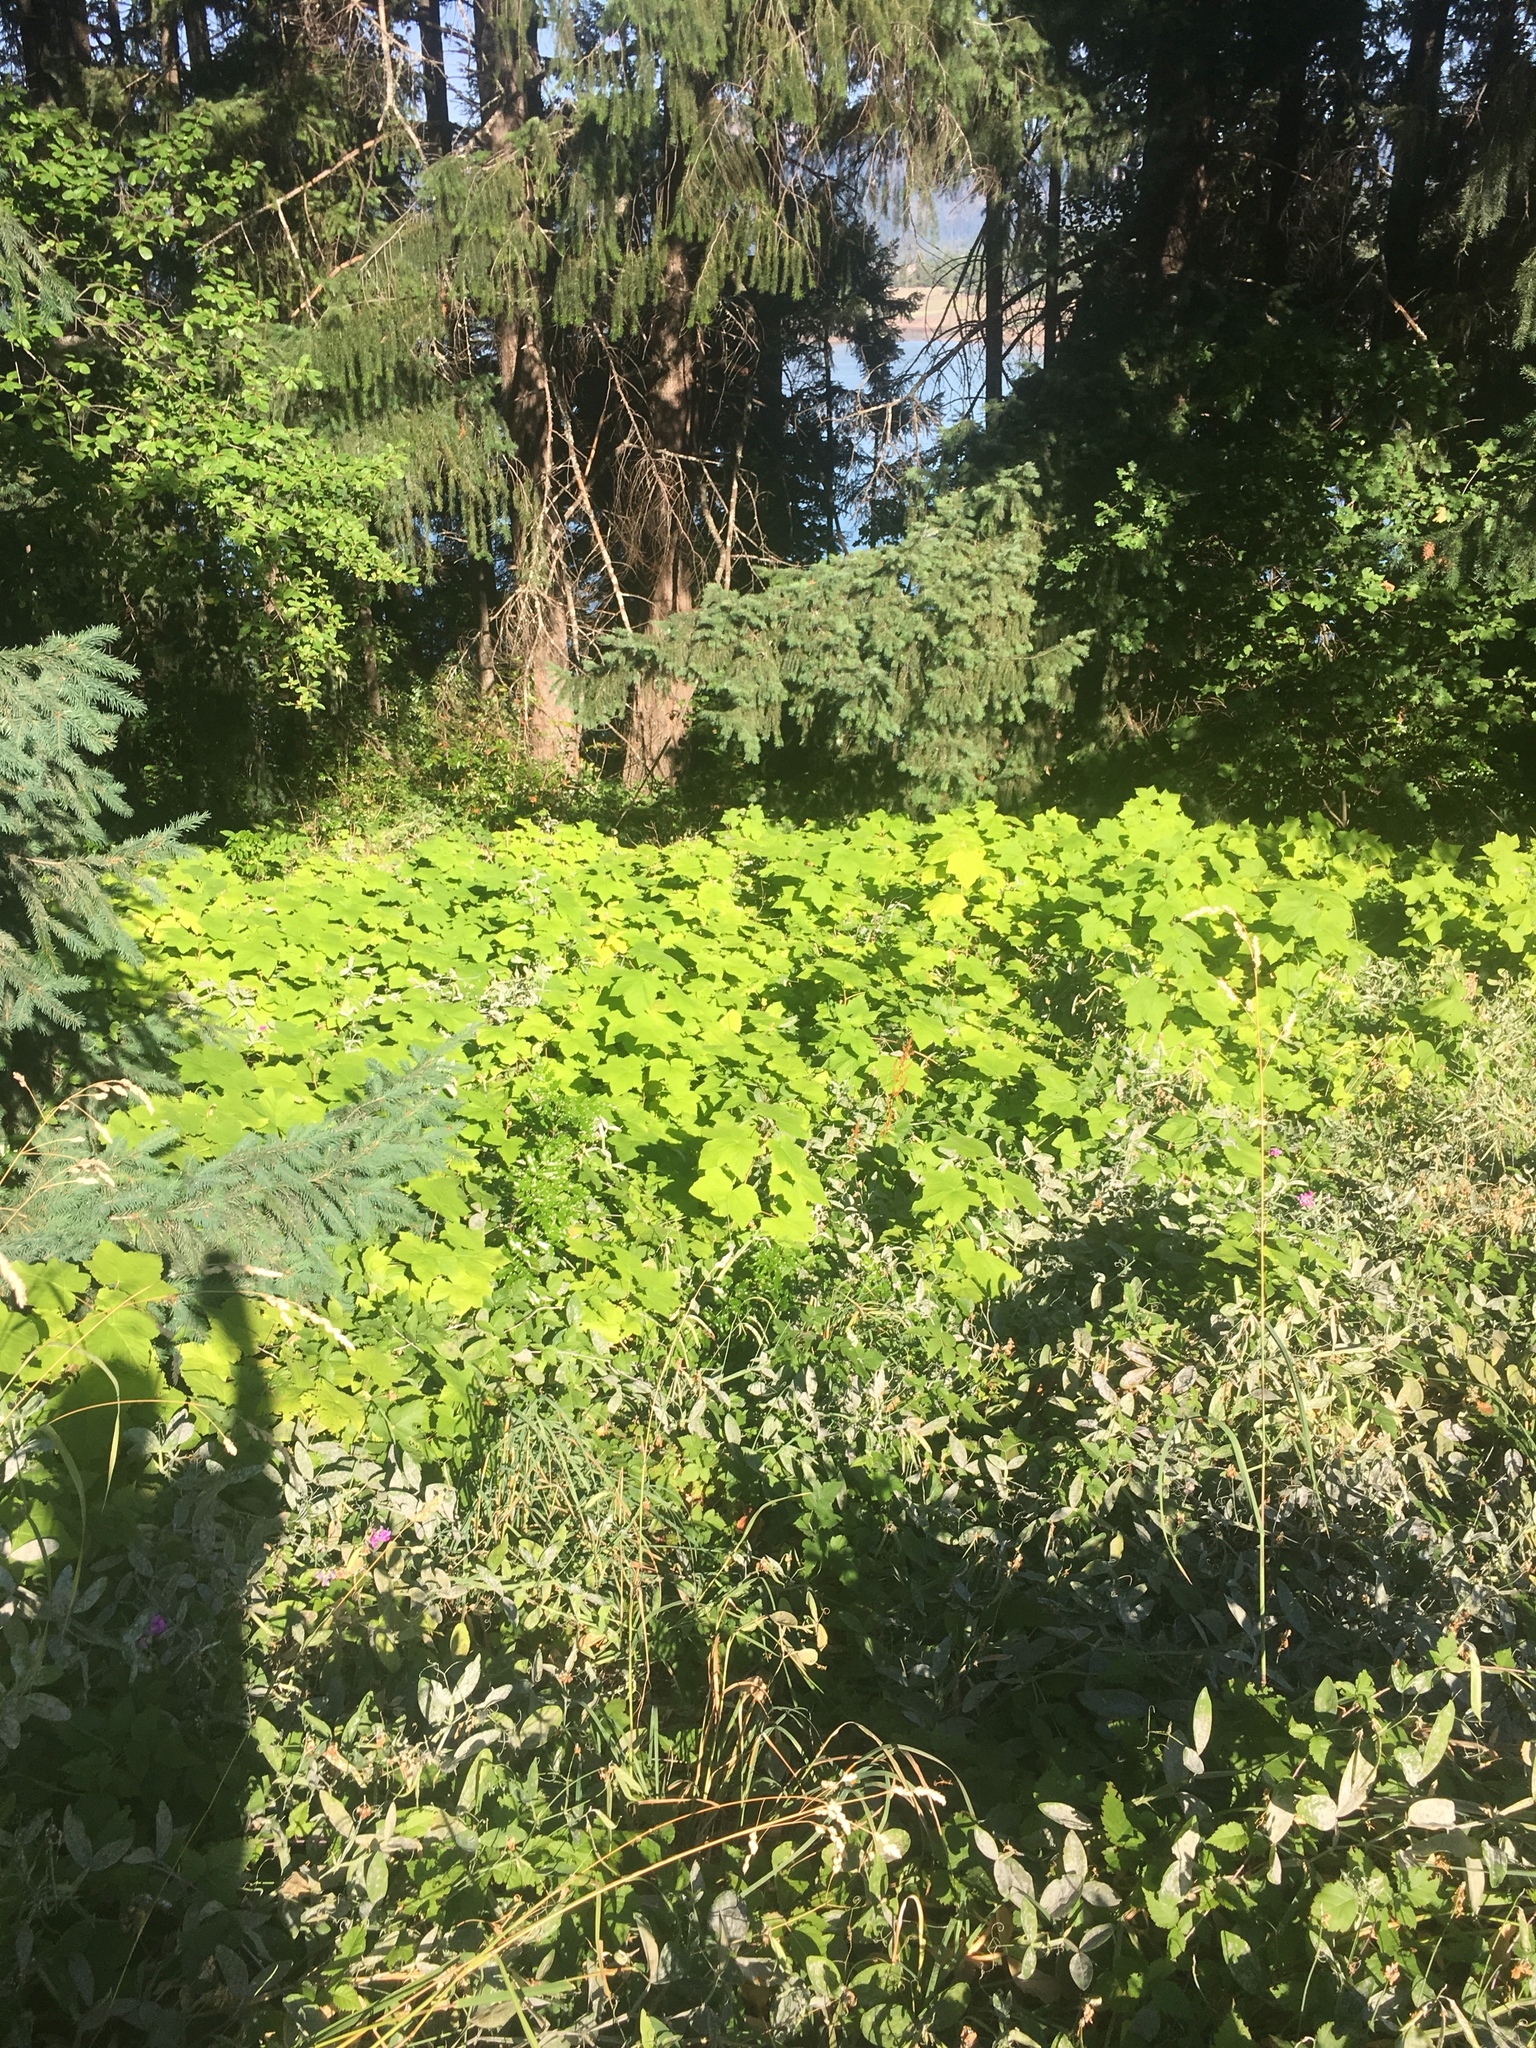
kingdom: Plantae
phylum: Tracheophyta
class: Magnoliopsida
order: Rosales
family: Rosaceae
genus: Rubus
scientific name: Rubus parviflorus
